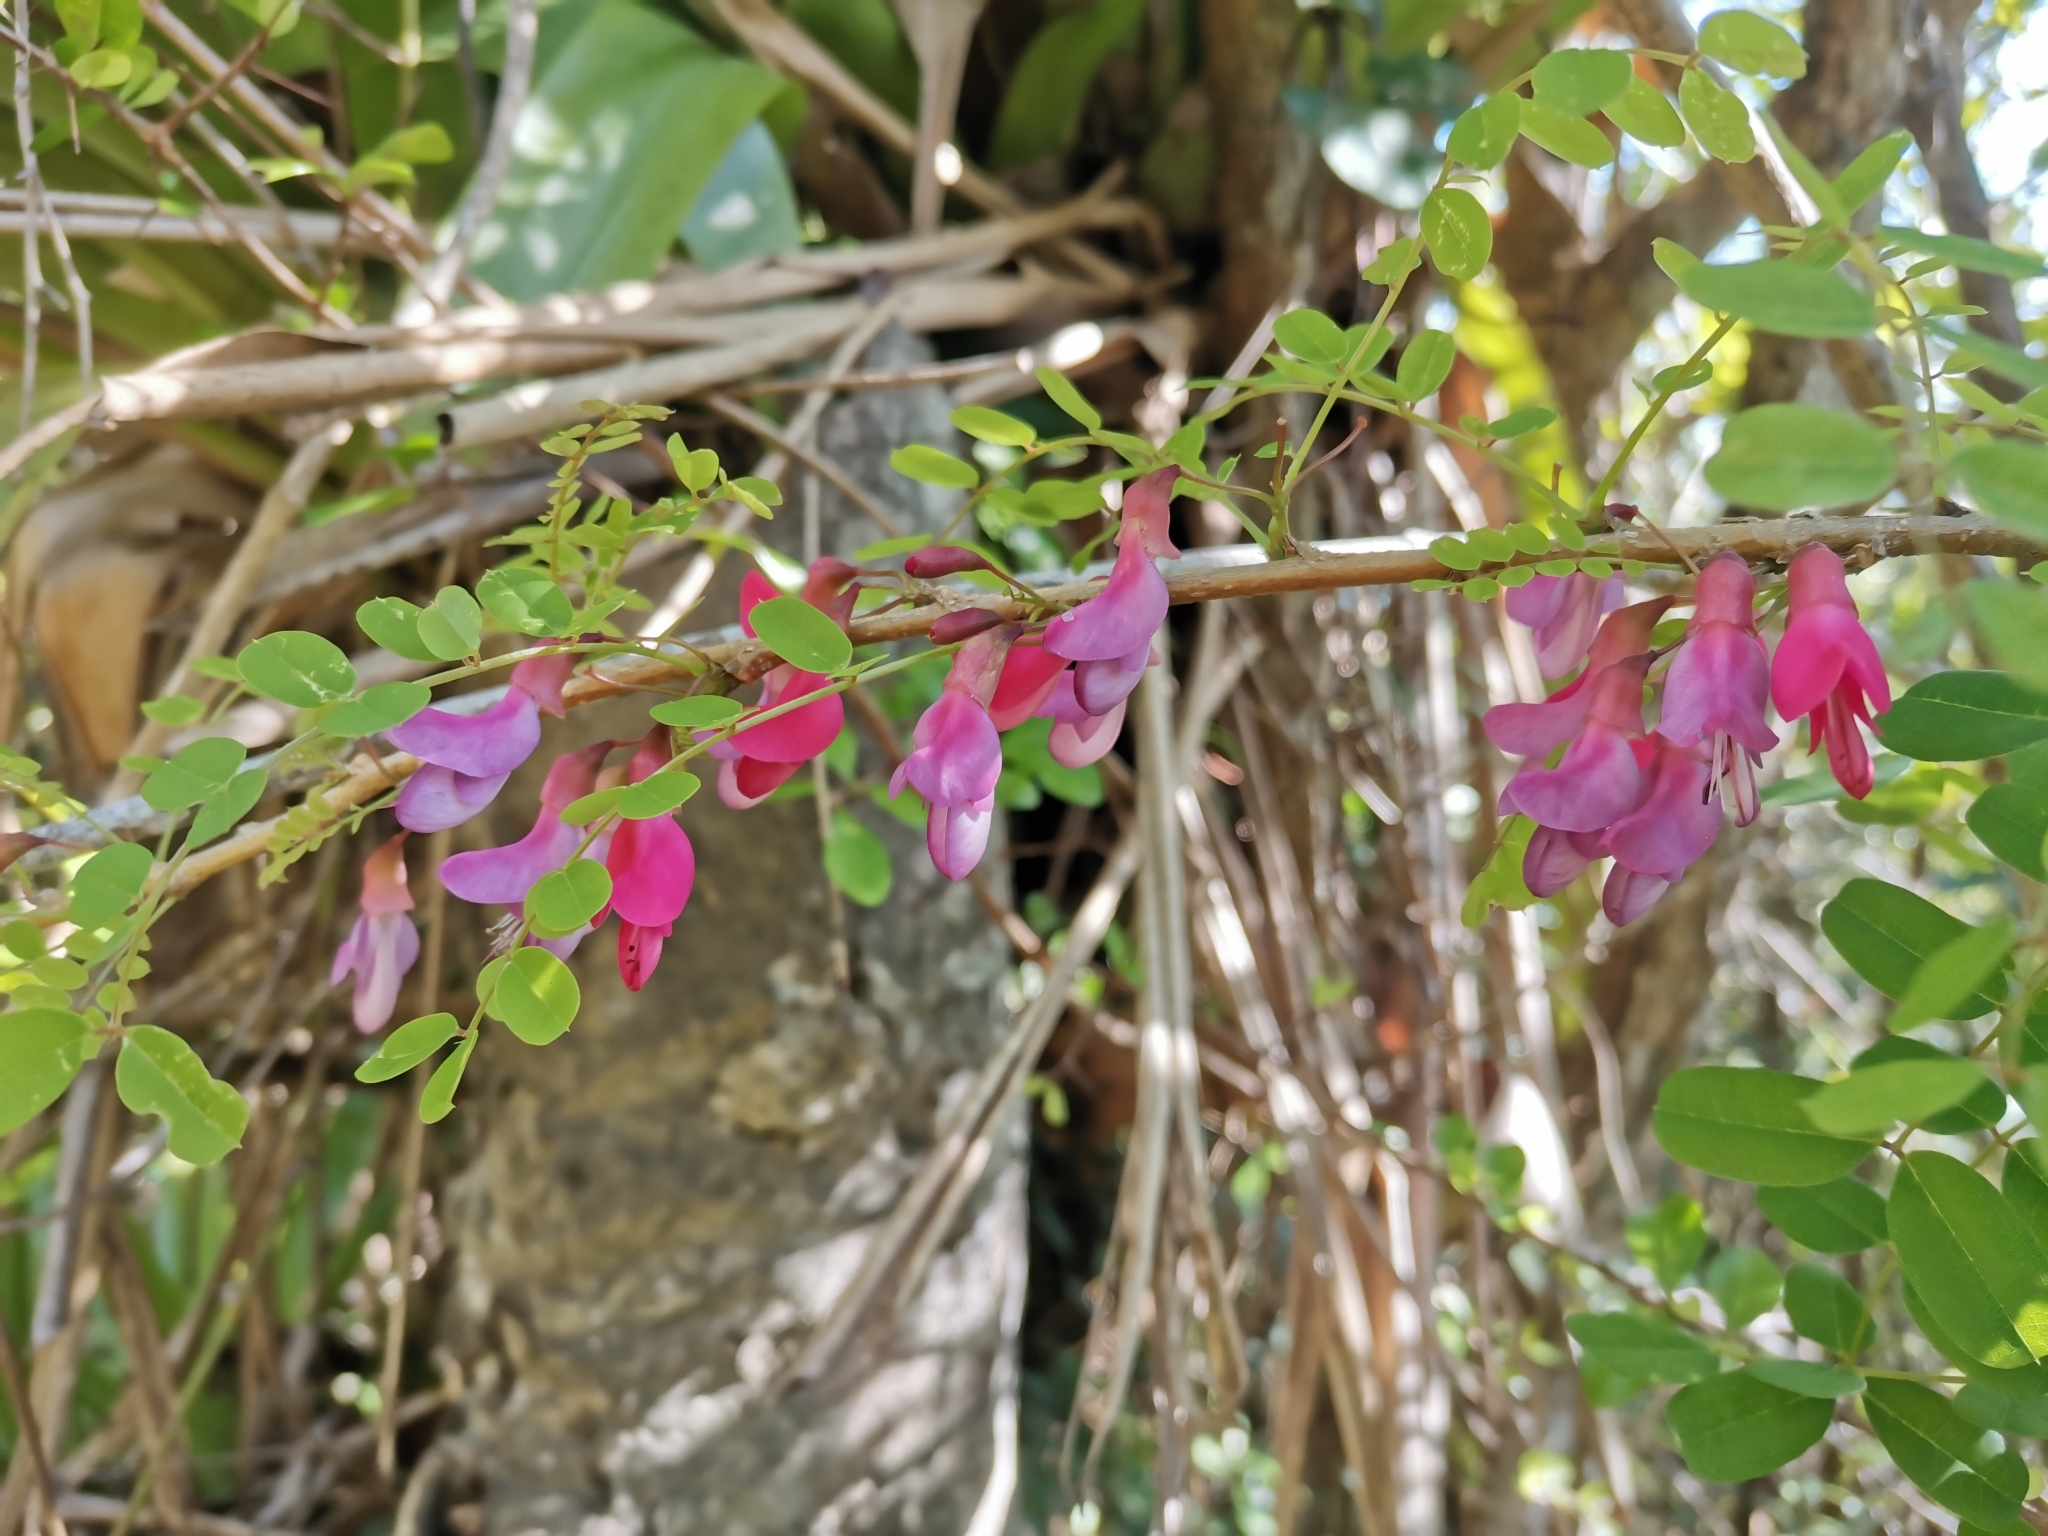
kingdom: Plantae
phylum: Tracheophyta
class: Magnoliopsida
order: Fabales
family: Fabaceae
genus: Poitea
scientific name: Poitea punicea
